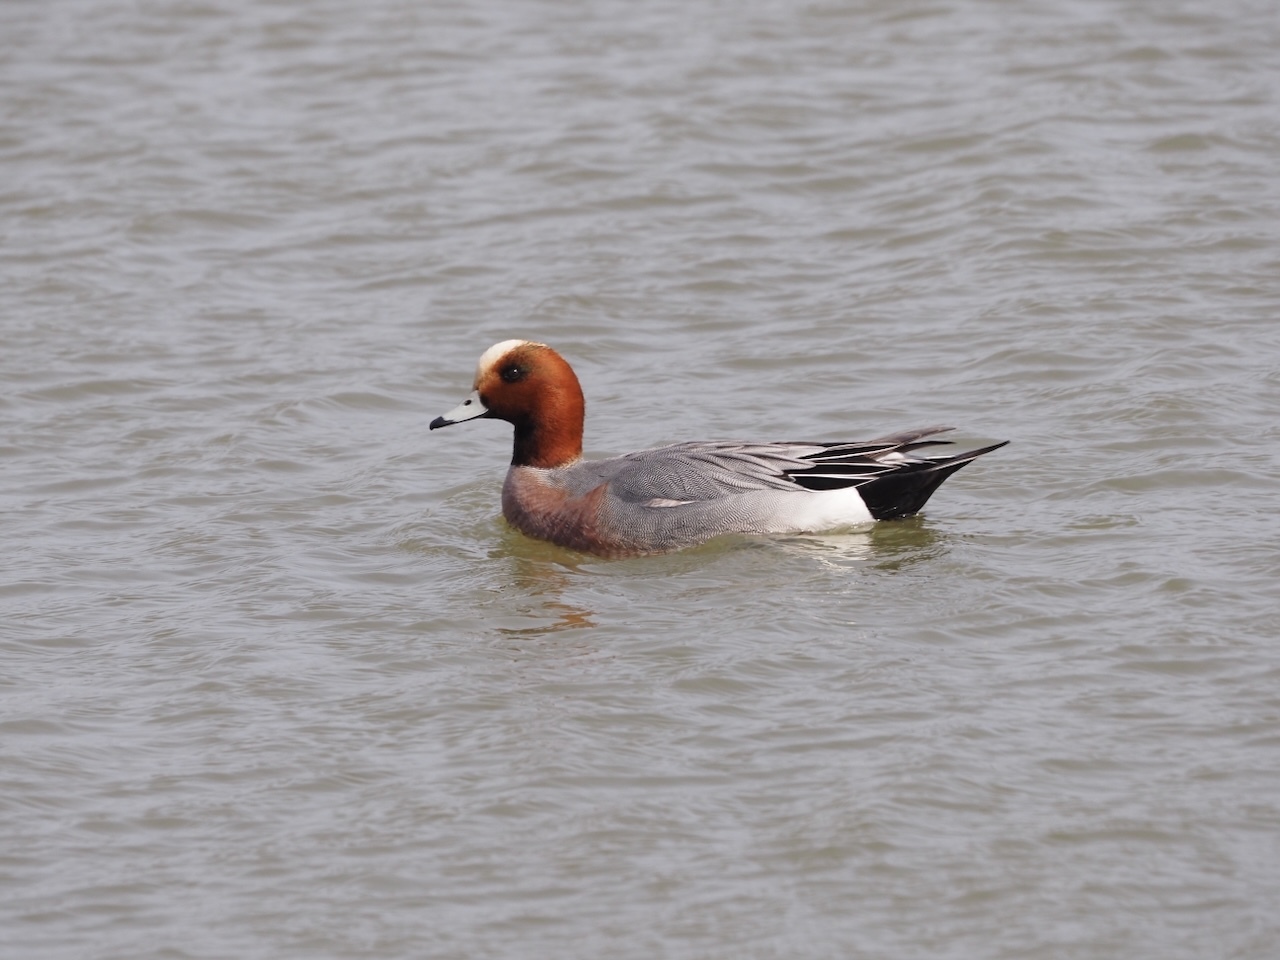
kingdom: Animalia
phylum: Chordata
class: Aves
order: Anseriformes
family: Anatidae
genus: Mareca
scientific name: Mareca penelope
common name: Eurasian wigeon
